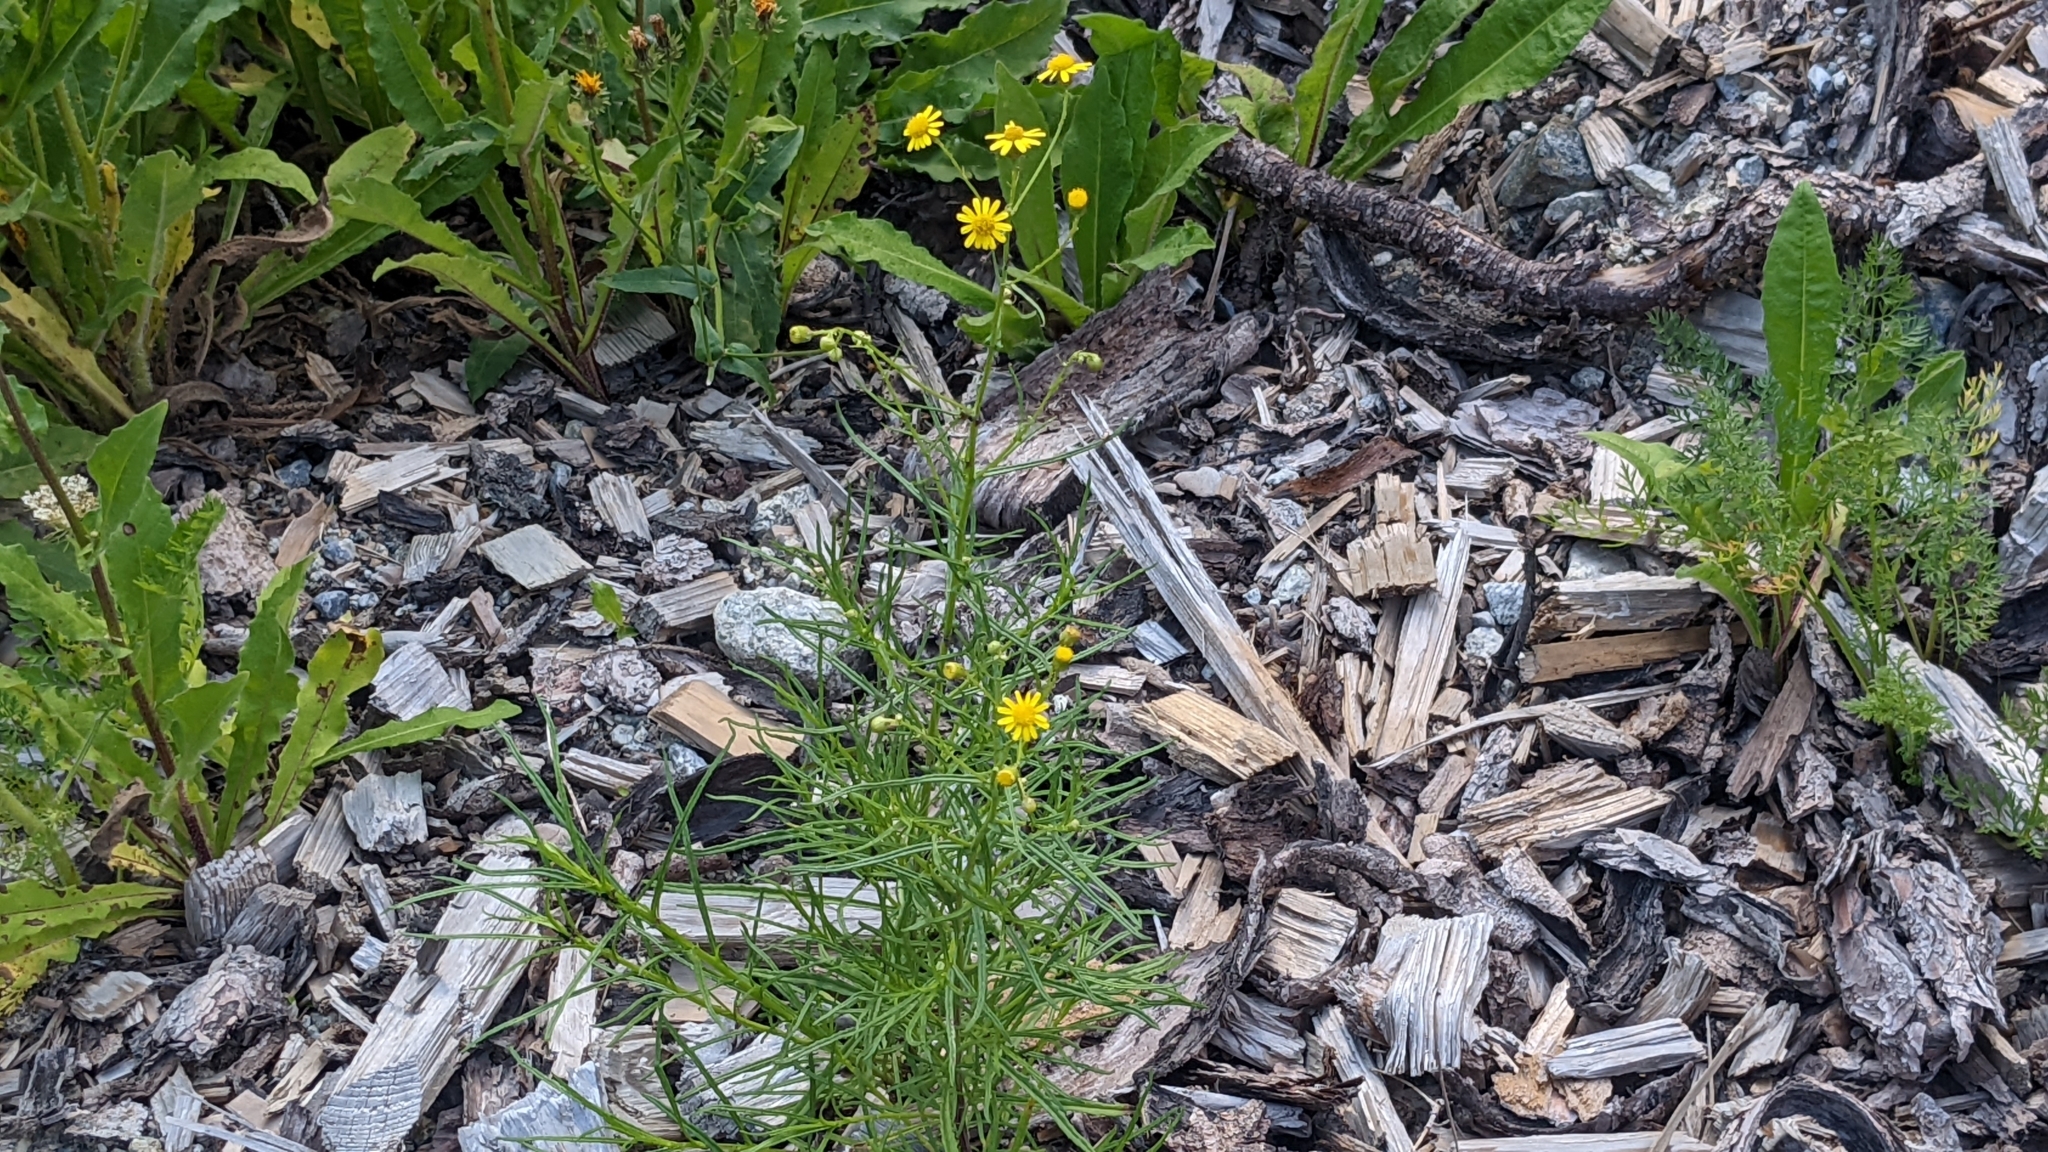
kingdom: Plantae
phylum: Tracheophyta
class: Magnoliopsida
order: Asterales
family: Asteraceae
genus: Senecio
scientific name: Senecio inaequidens
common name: Narrow-leaved ragwort
